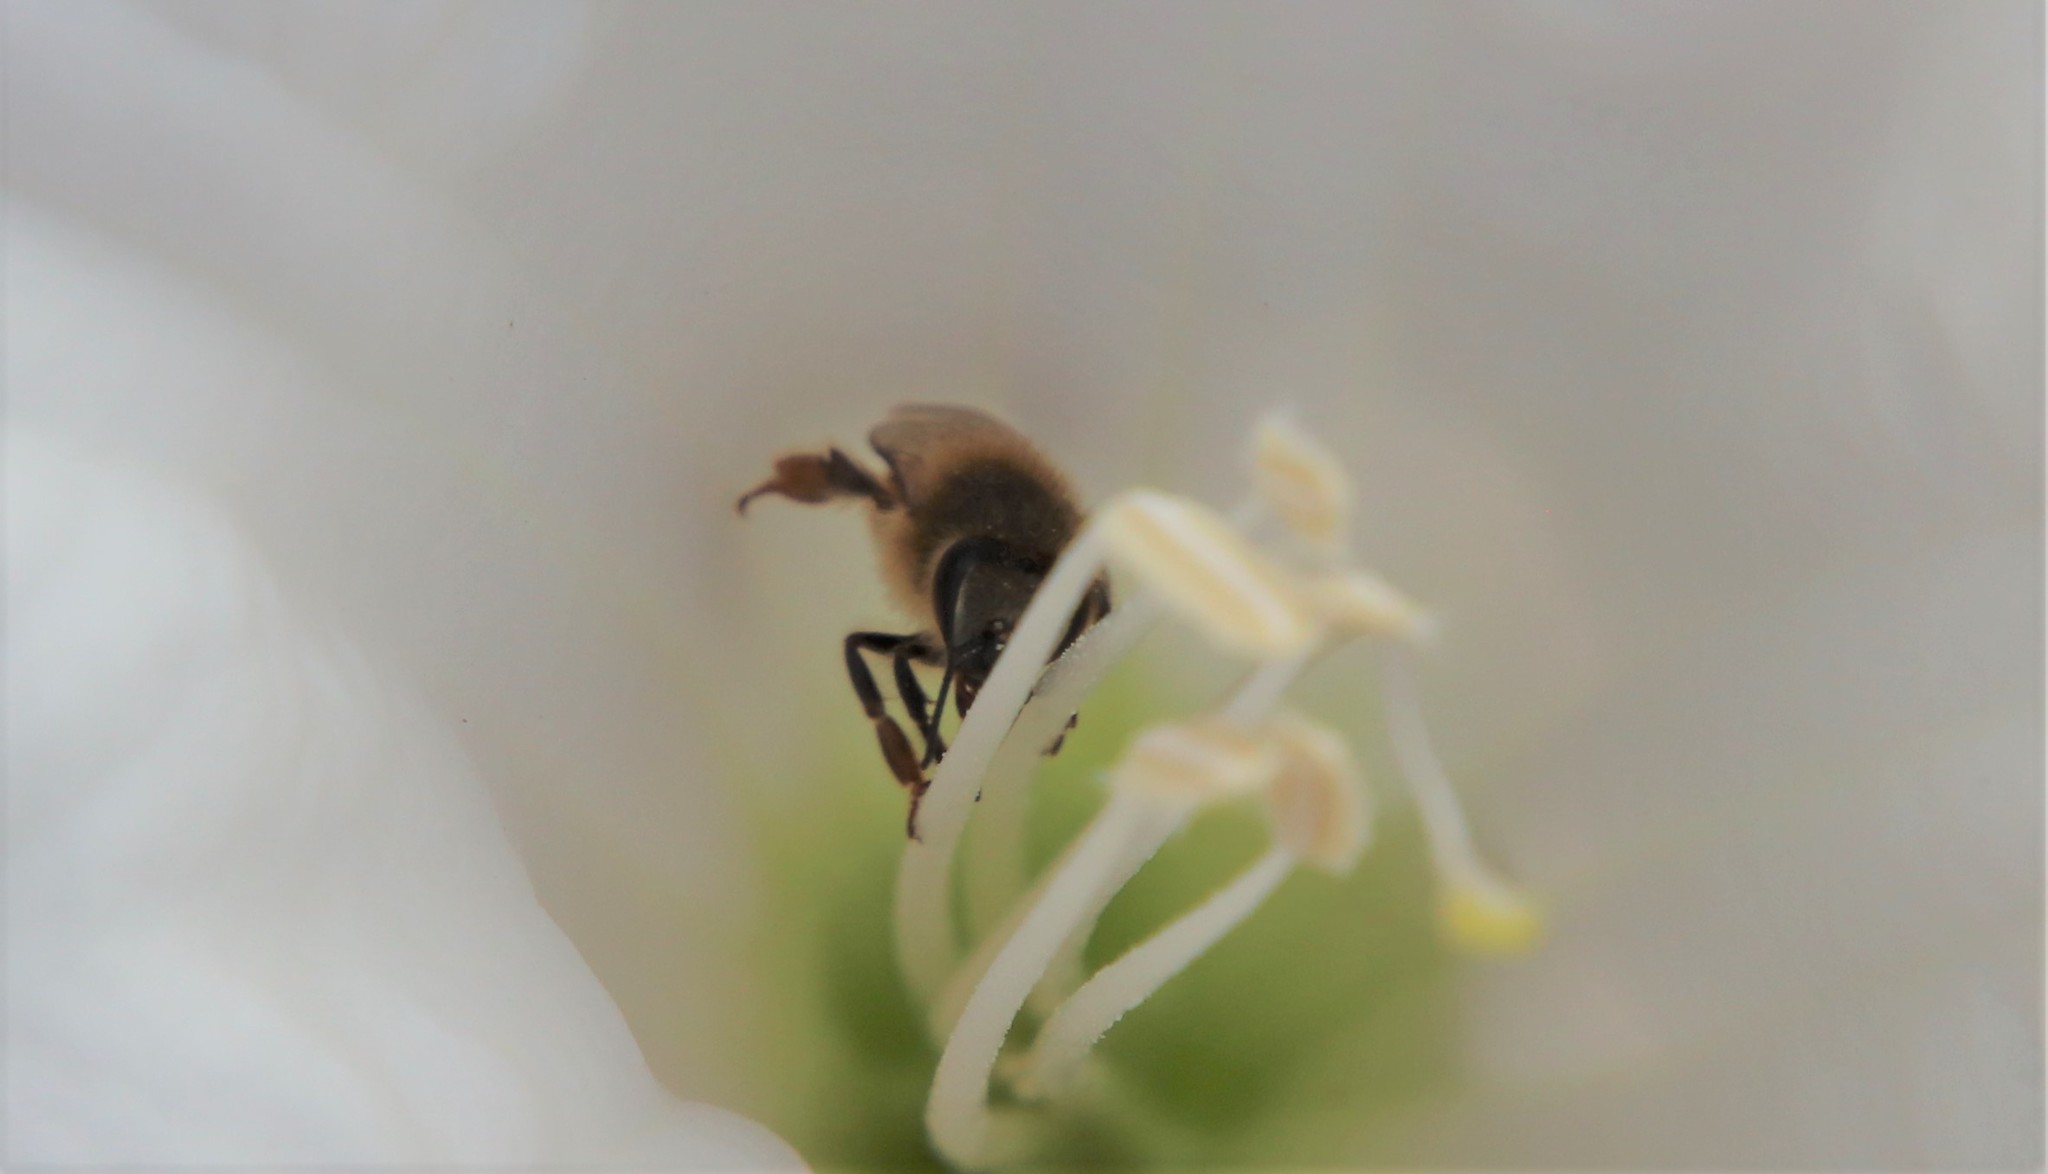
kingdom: Animalia
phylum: Arthropoda
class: Insecta
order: Hymenoptera
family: Apidae
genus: Apis
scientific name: Apis mellifera
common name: Honey bee
